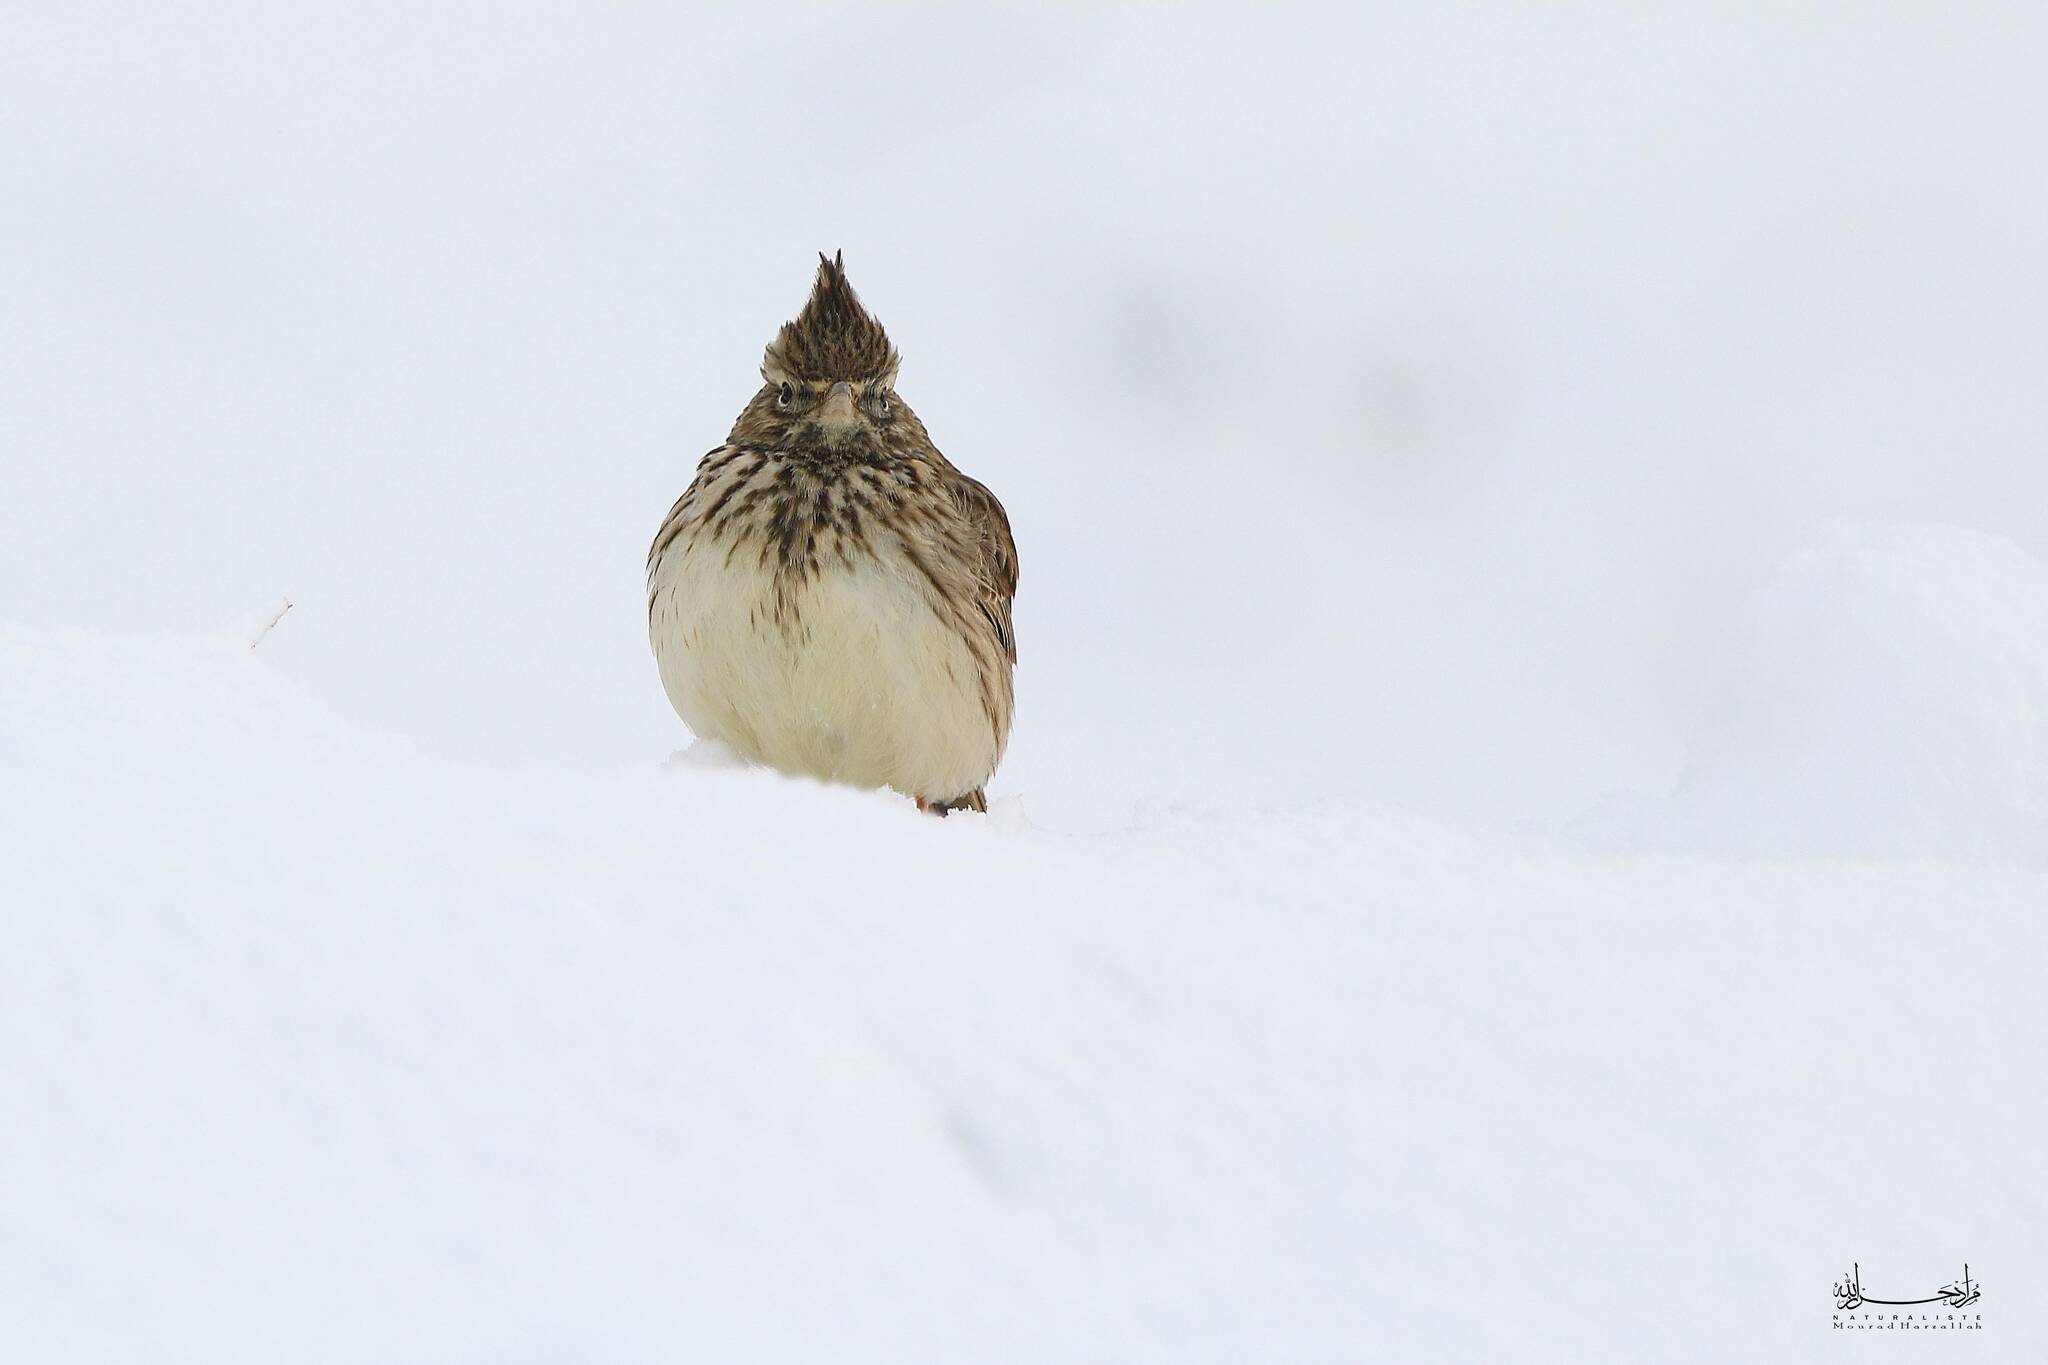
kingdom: Animalia
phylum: Chordata
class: Aves
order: Passeriformes
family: Alaudidae
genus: Galerida
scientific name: Galerida cristata
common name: Crested lark
